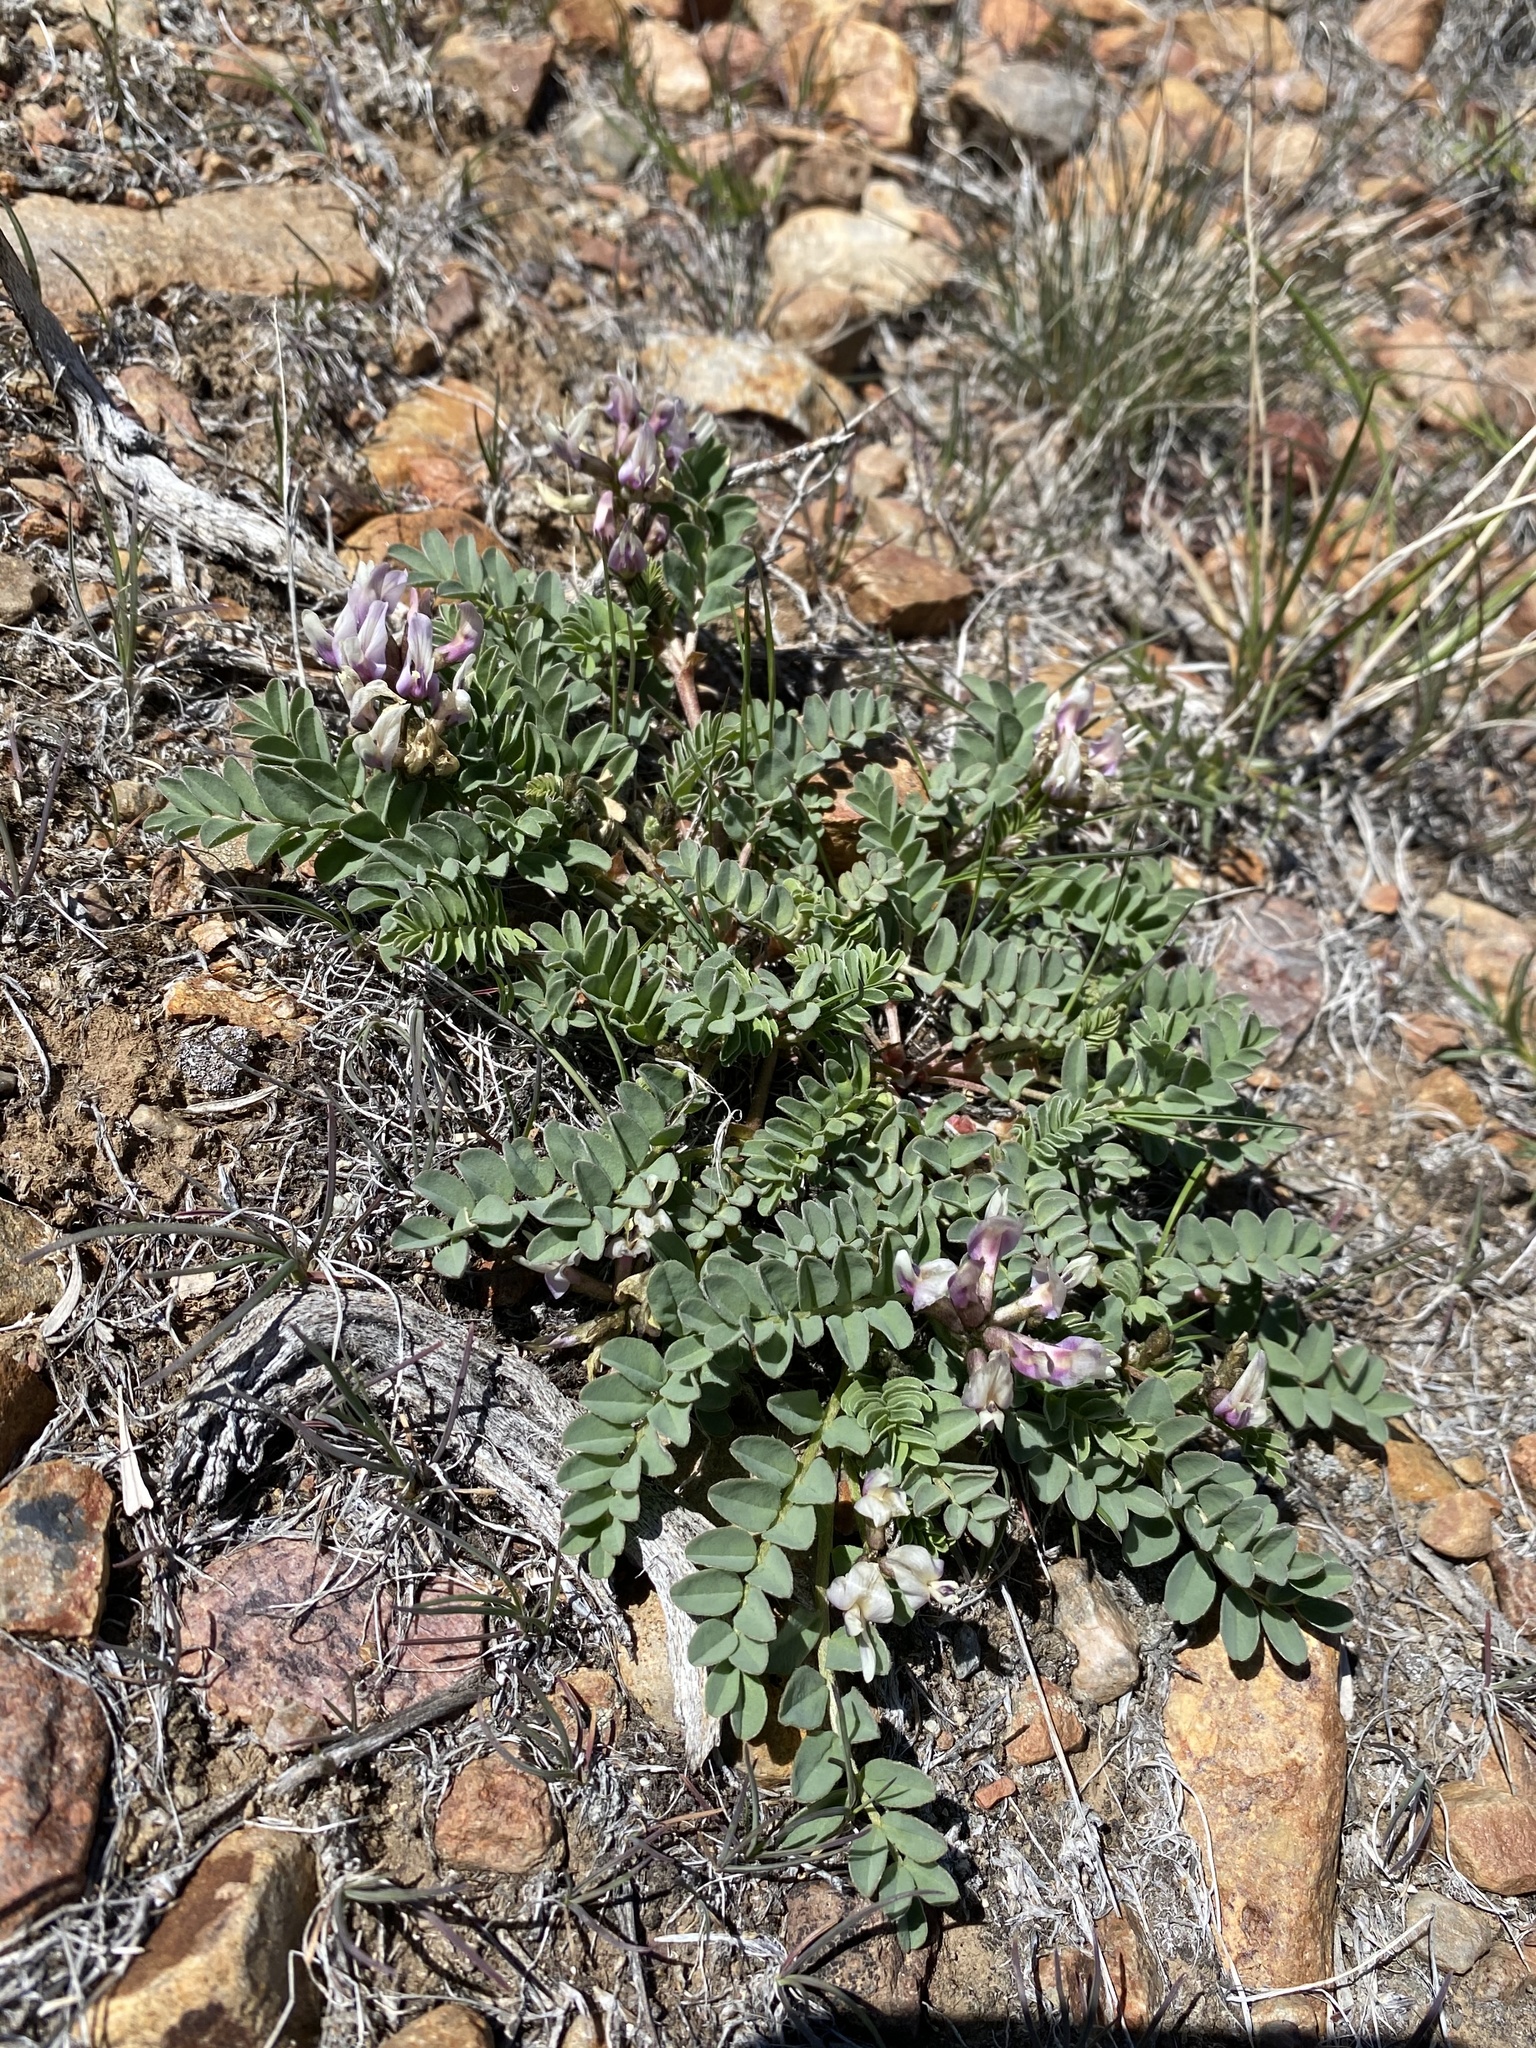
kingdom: Plantae
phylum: Tracheophyta
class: Magnoliopsida
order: Fabales
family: Fabaceae
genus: Astragalus
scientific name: Astragalus cibarius
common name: Browse milk-vetch
